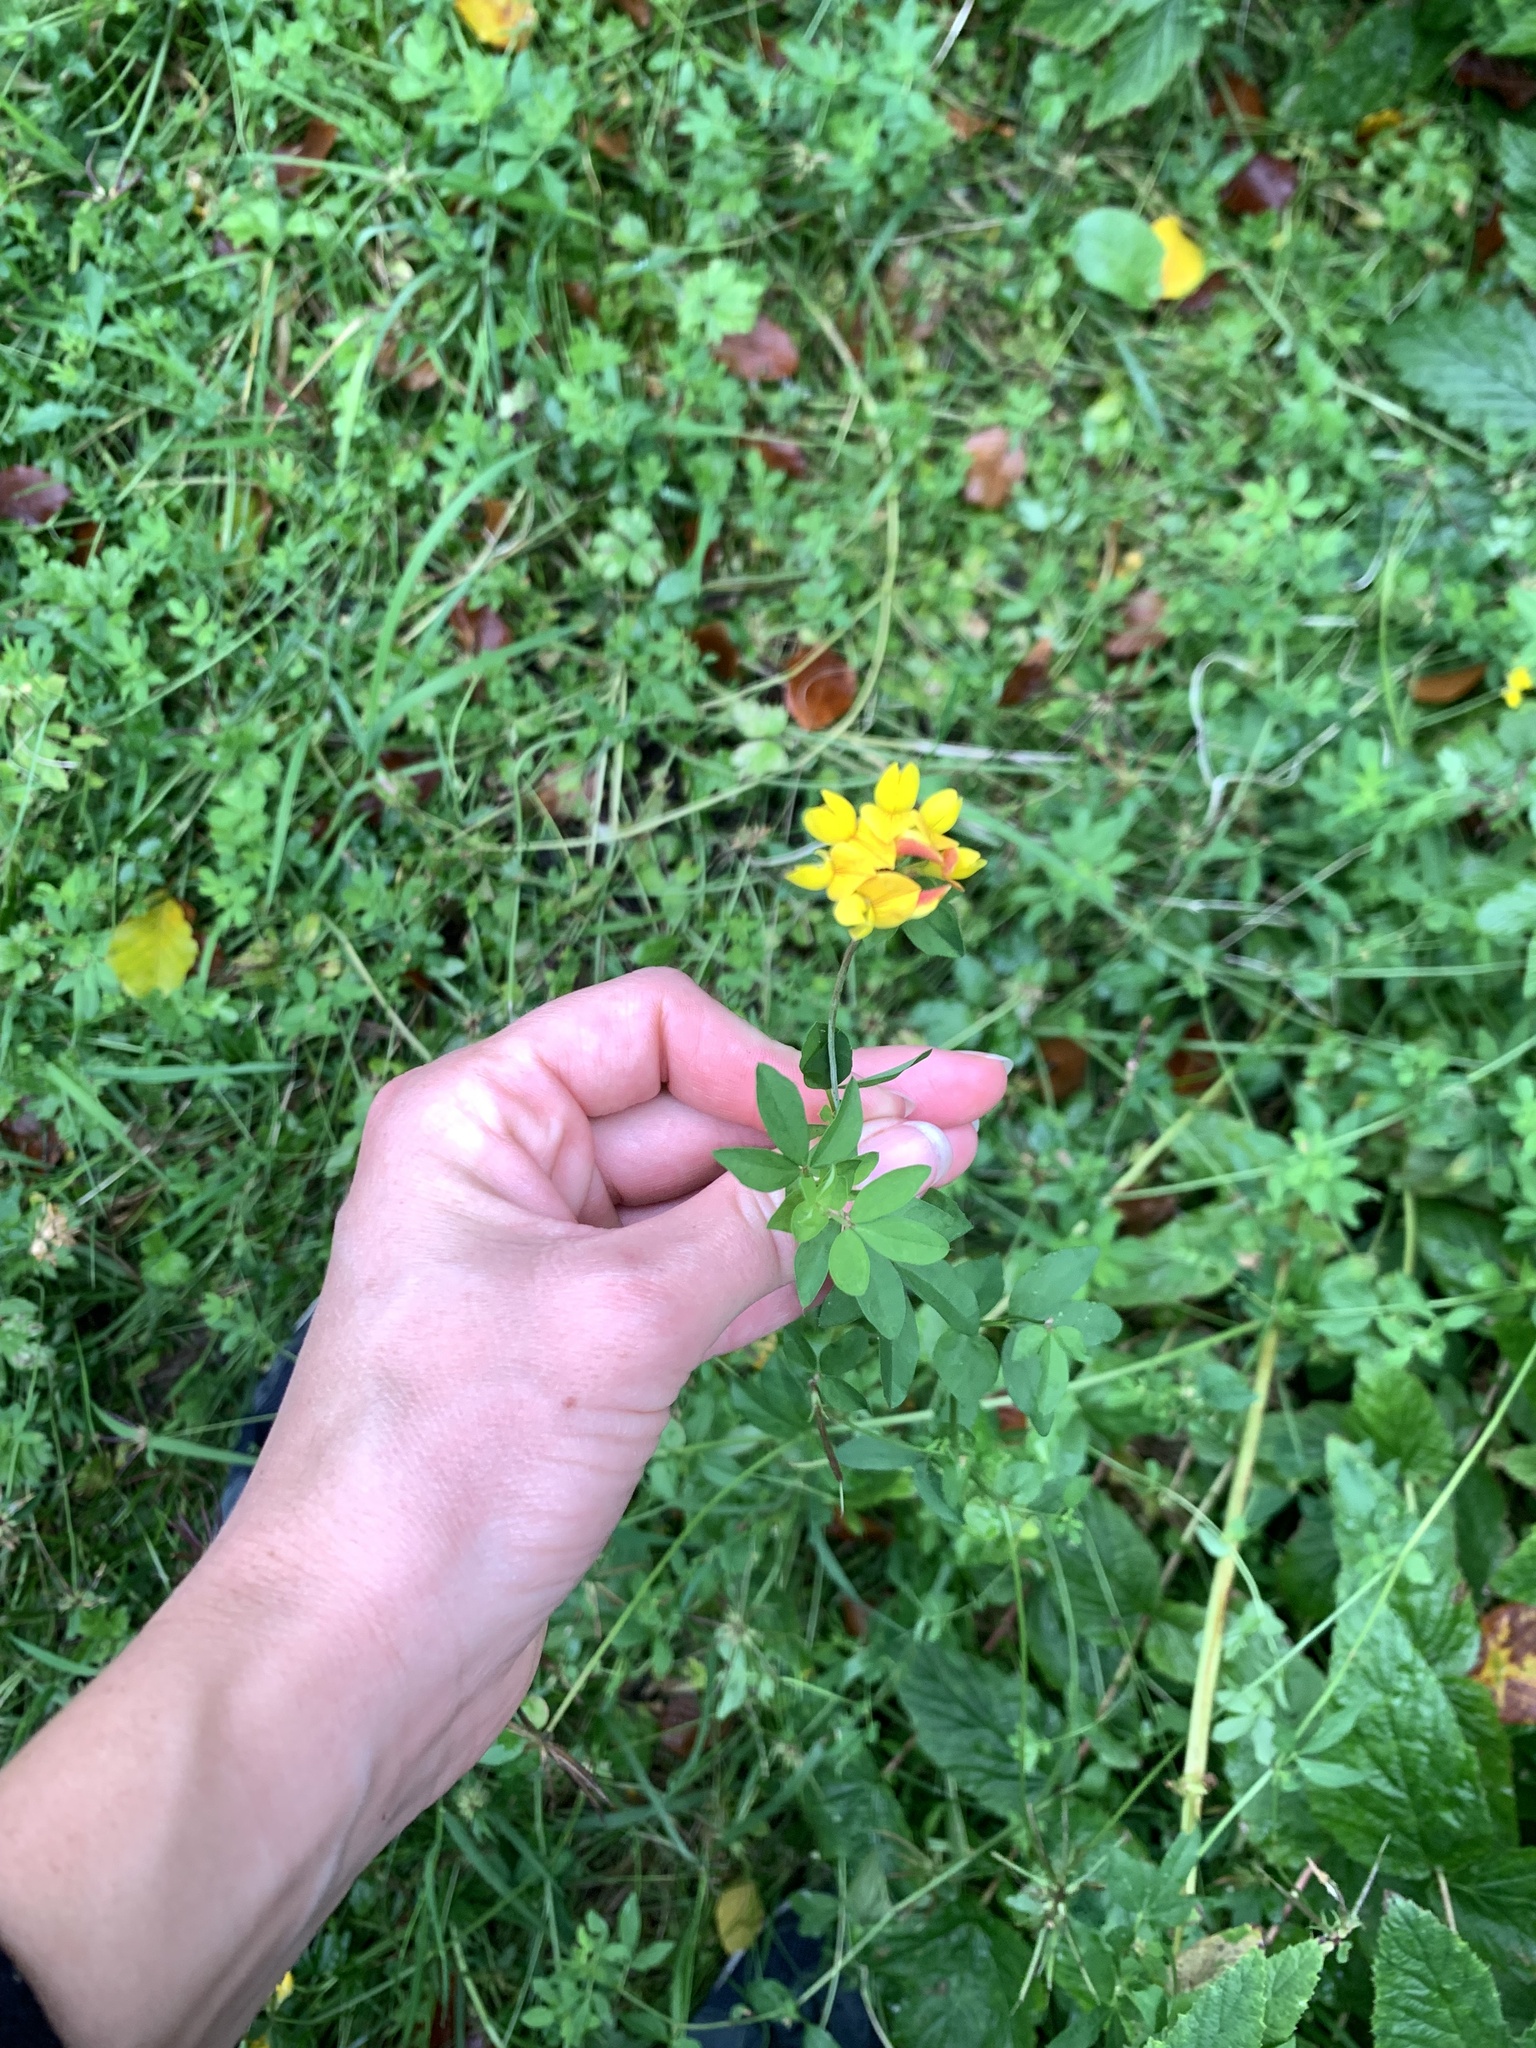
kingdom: Plantae
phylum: Tracheophyta
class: Magnoliopsida
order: Fabales
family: Fabaceae
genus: Lotus
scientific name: Lotus pedunculatus
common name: Greater birdsfoot-trefoil
